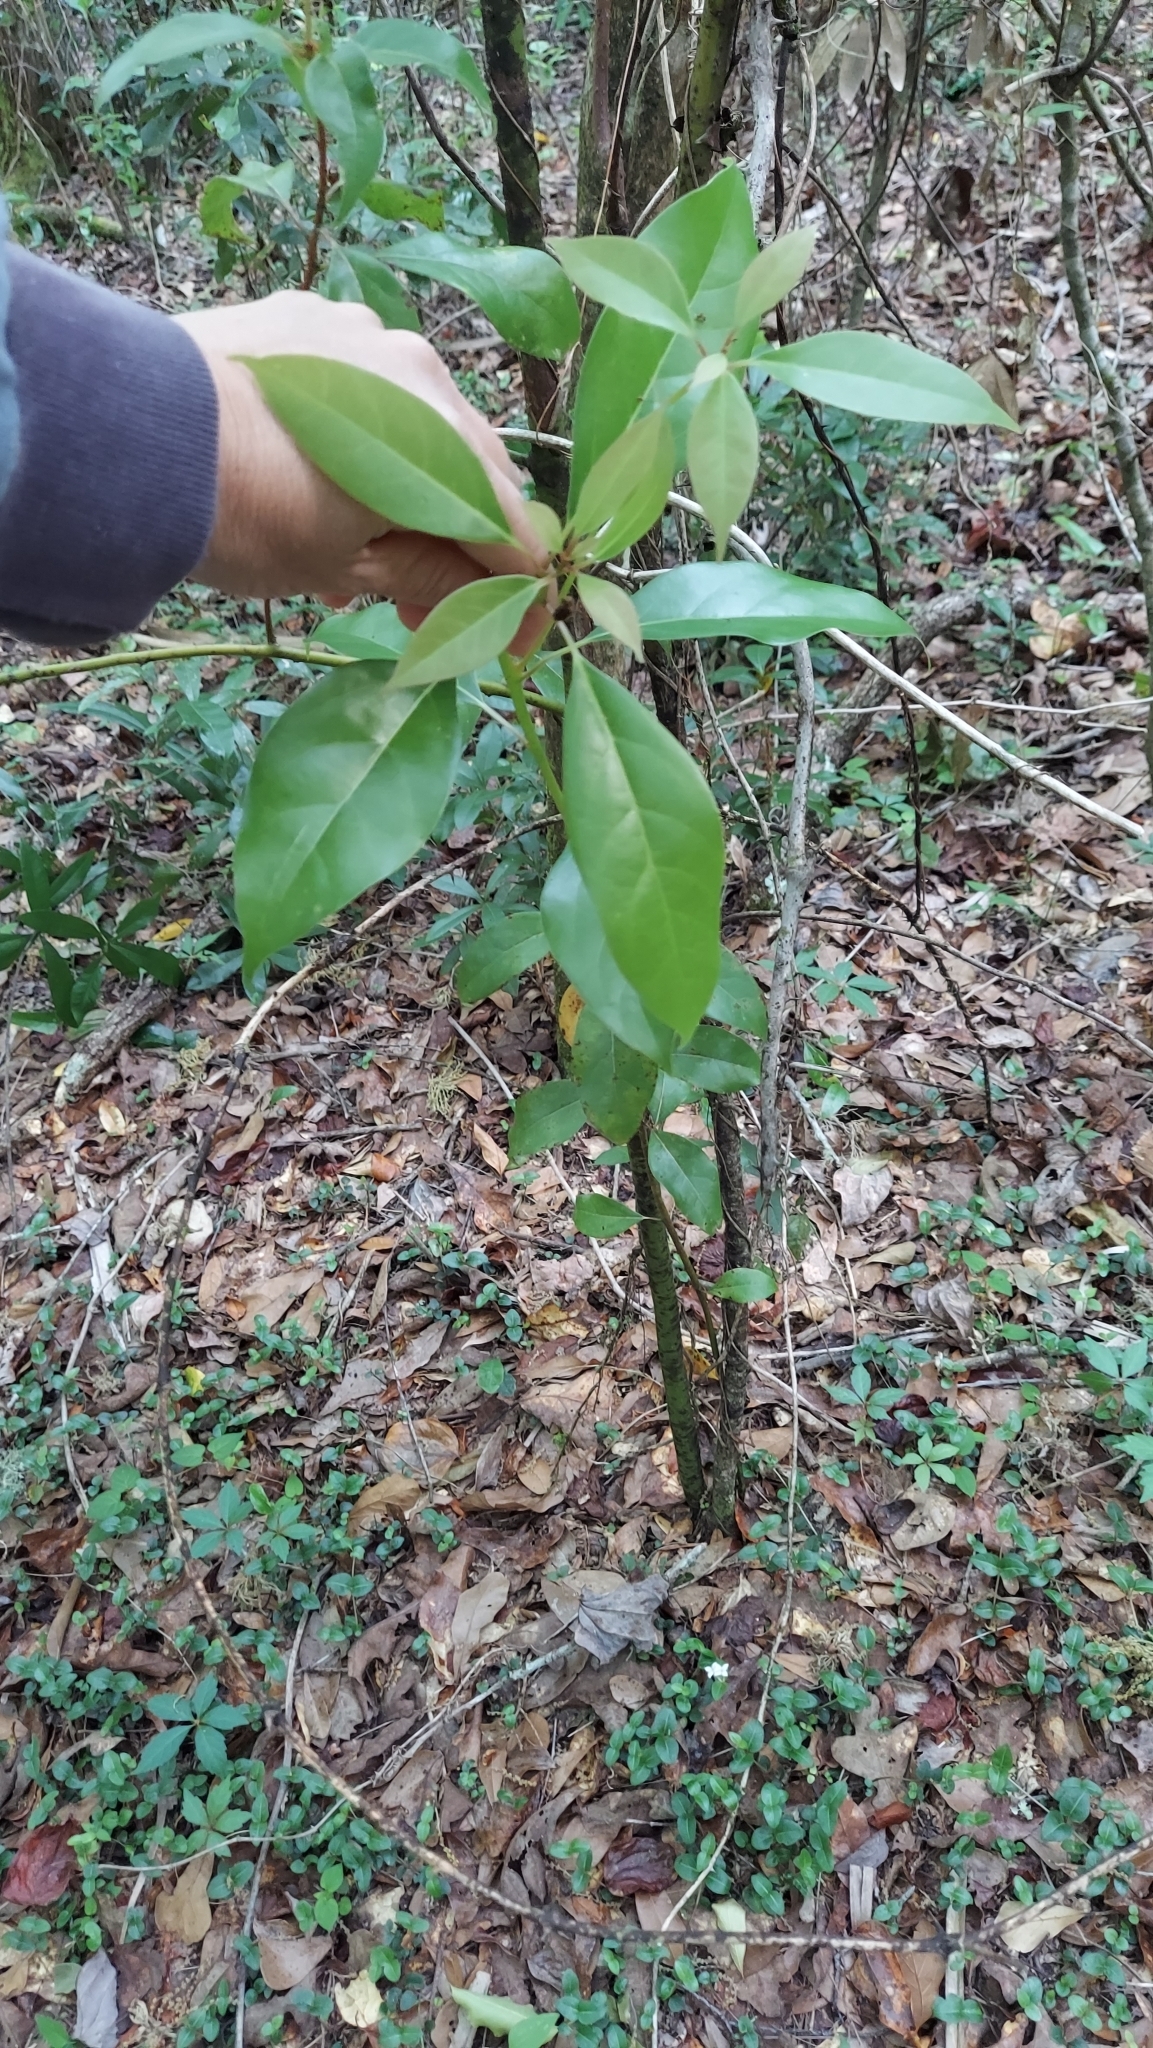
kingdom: Plantae
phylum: Tracheophyta
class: Magnoliopsida
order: Laurales
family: Lauraceae
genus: Cinnamomum
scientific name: Cinnamomum camphora
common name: Camphortree
